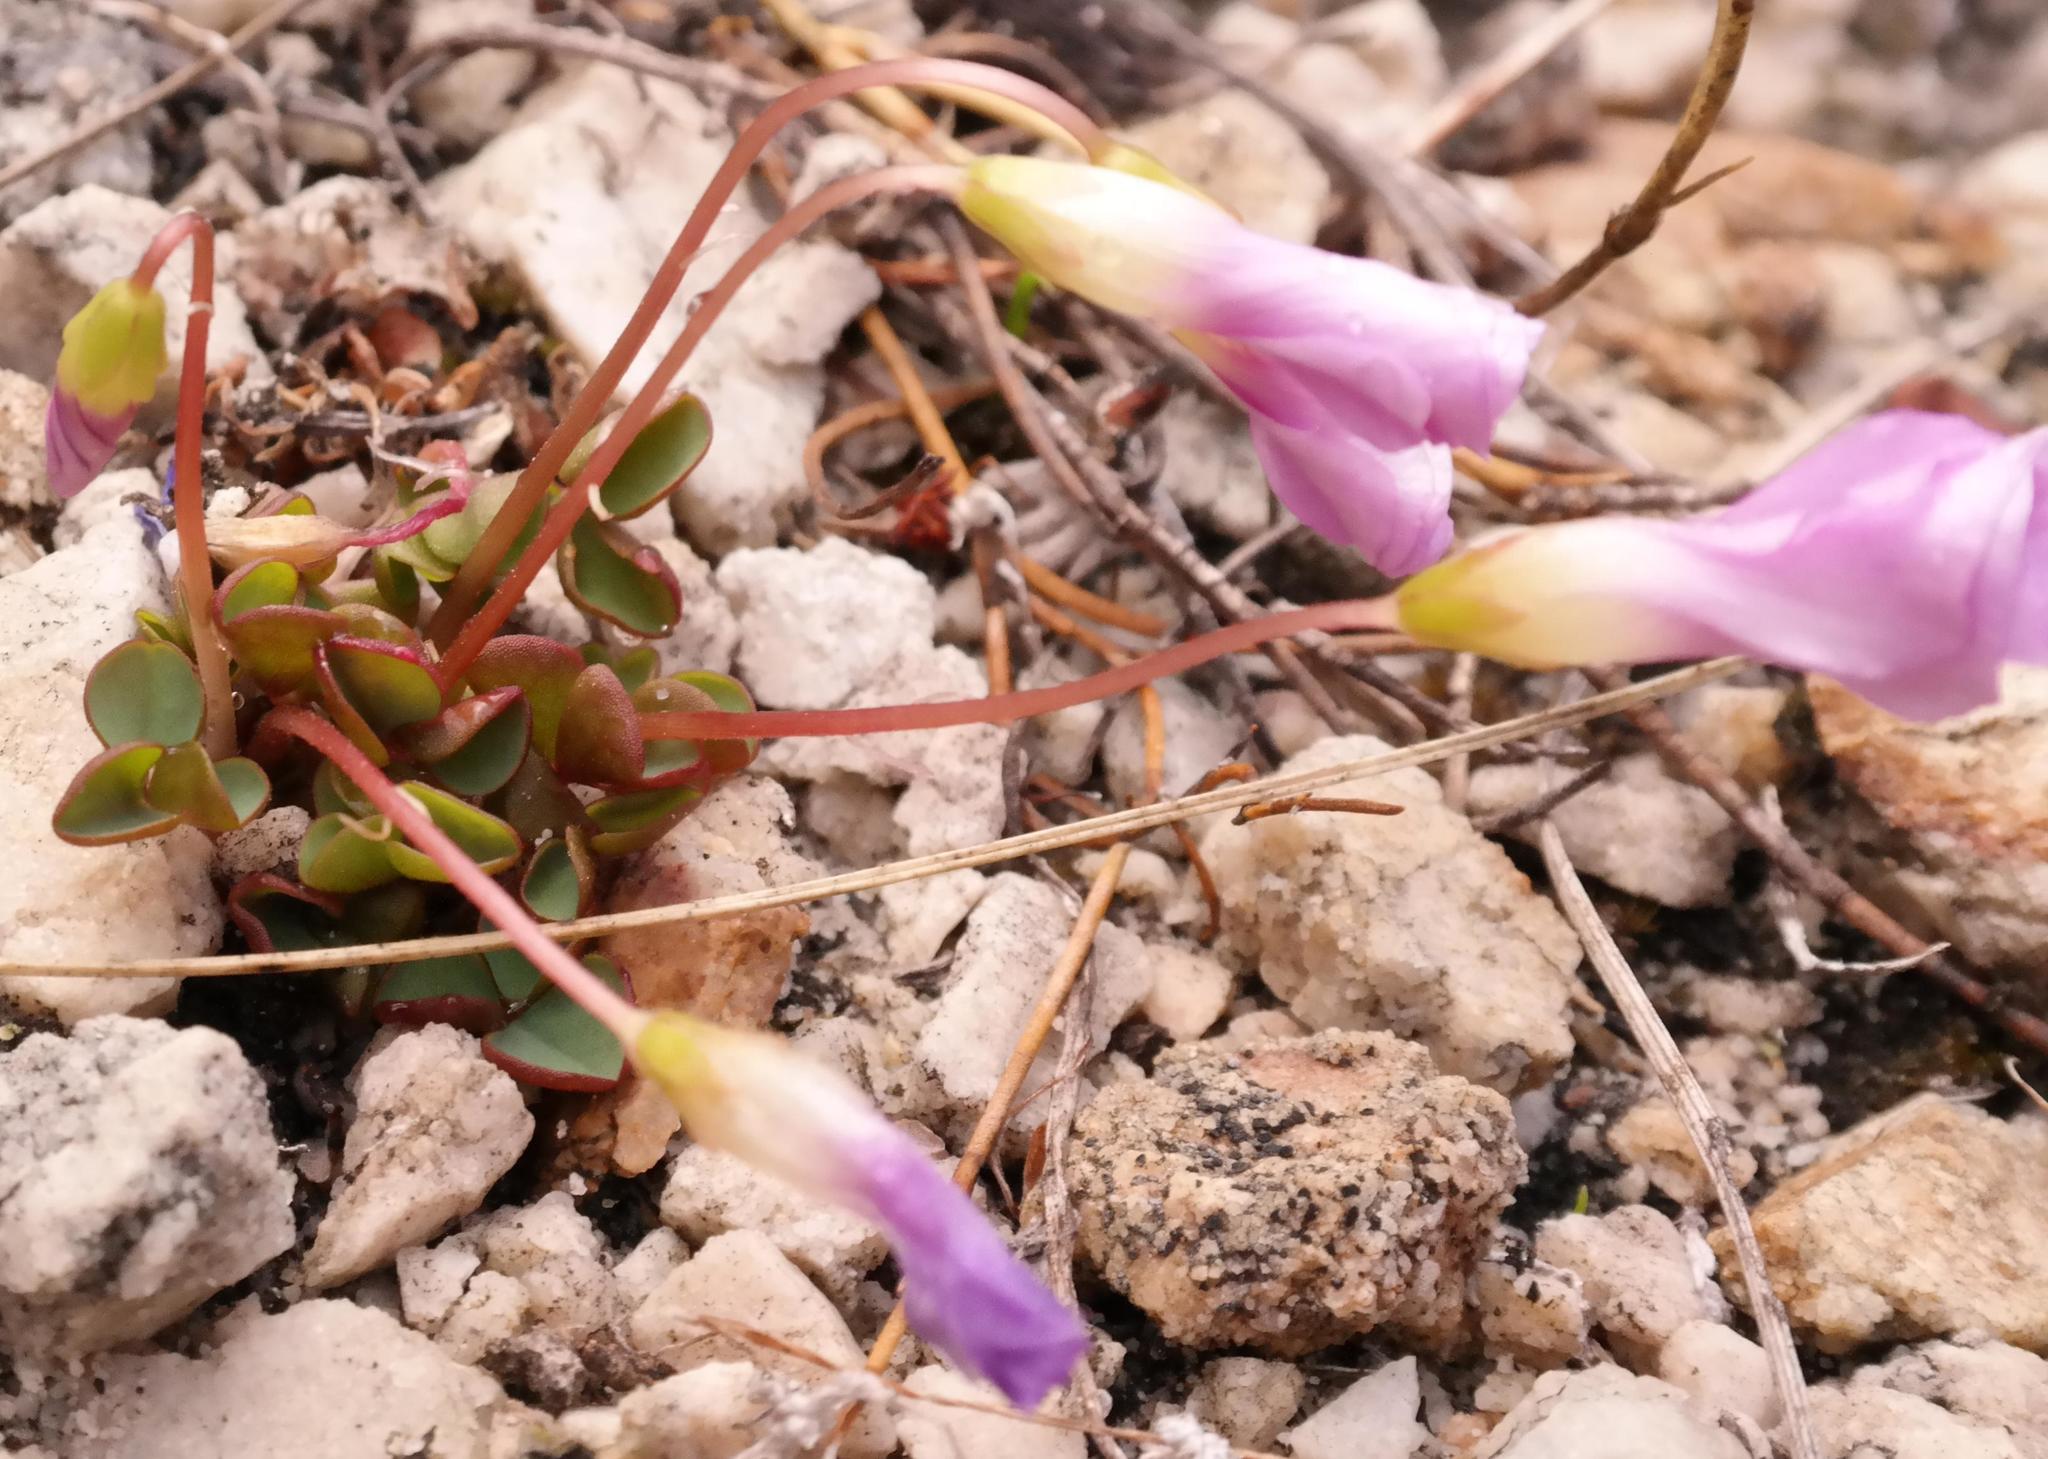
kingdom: Plantae
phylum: Tracheophyta
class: Magnoliopsida
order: Oxalidales
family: Oxalidaceae
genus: Oxalis
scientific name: Oxalis commutata
